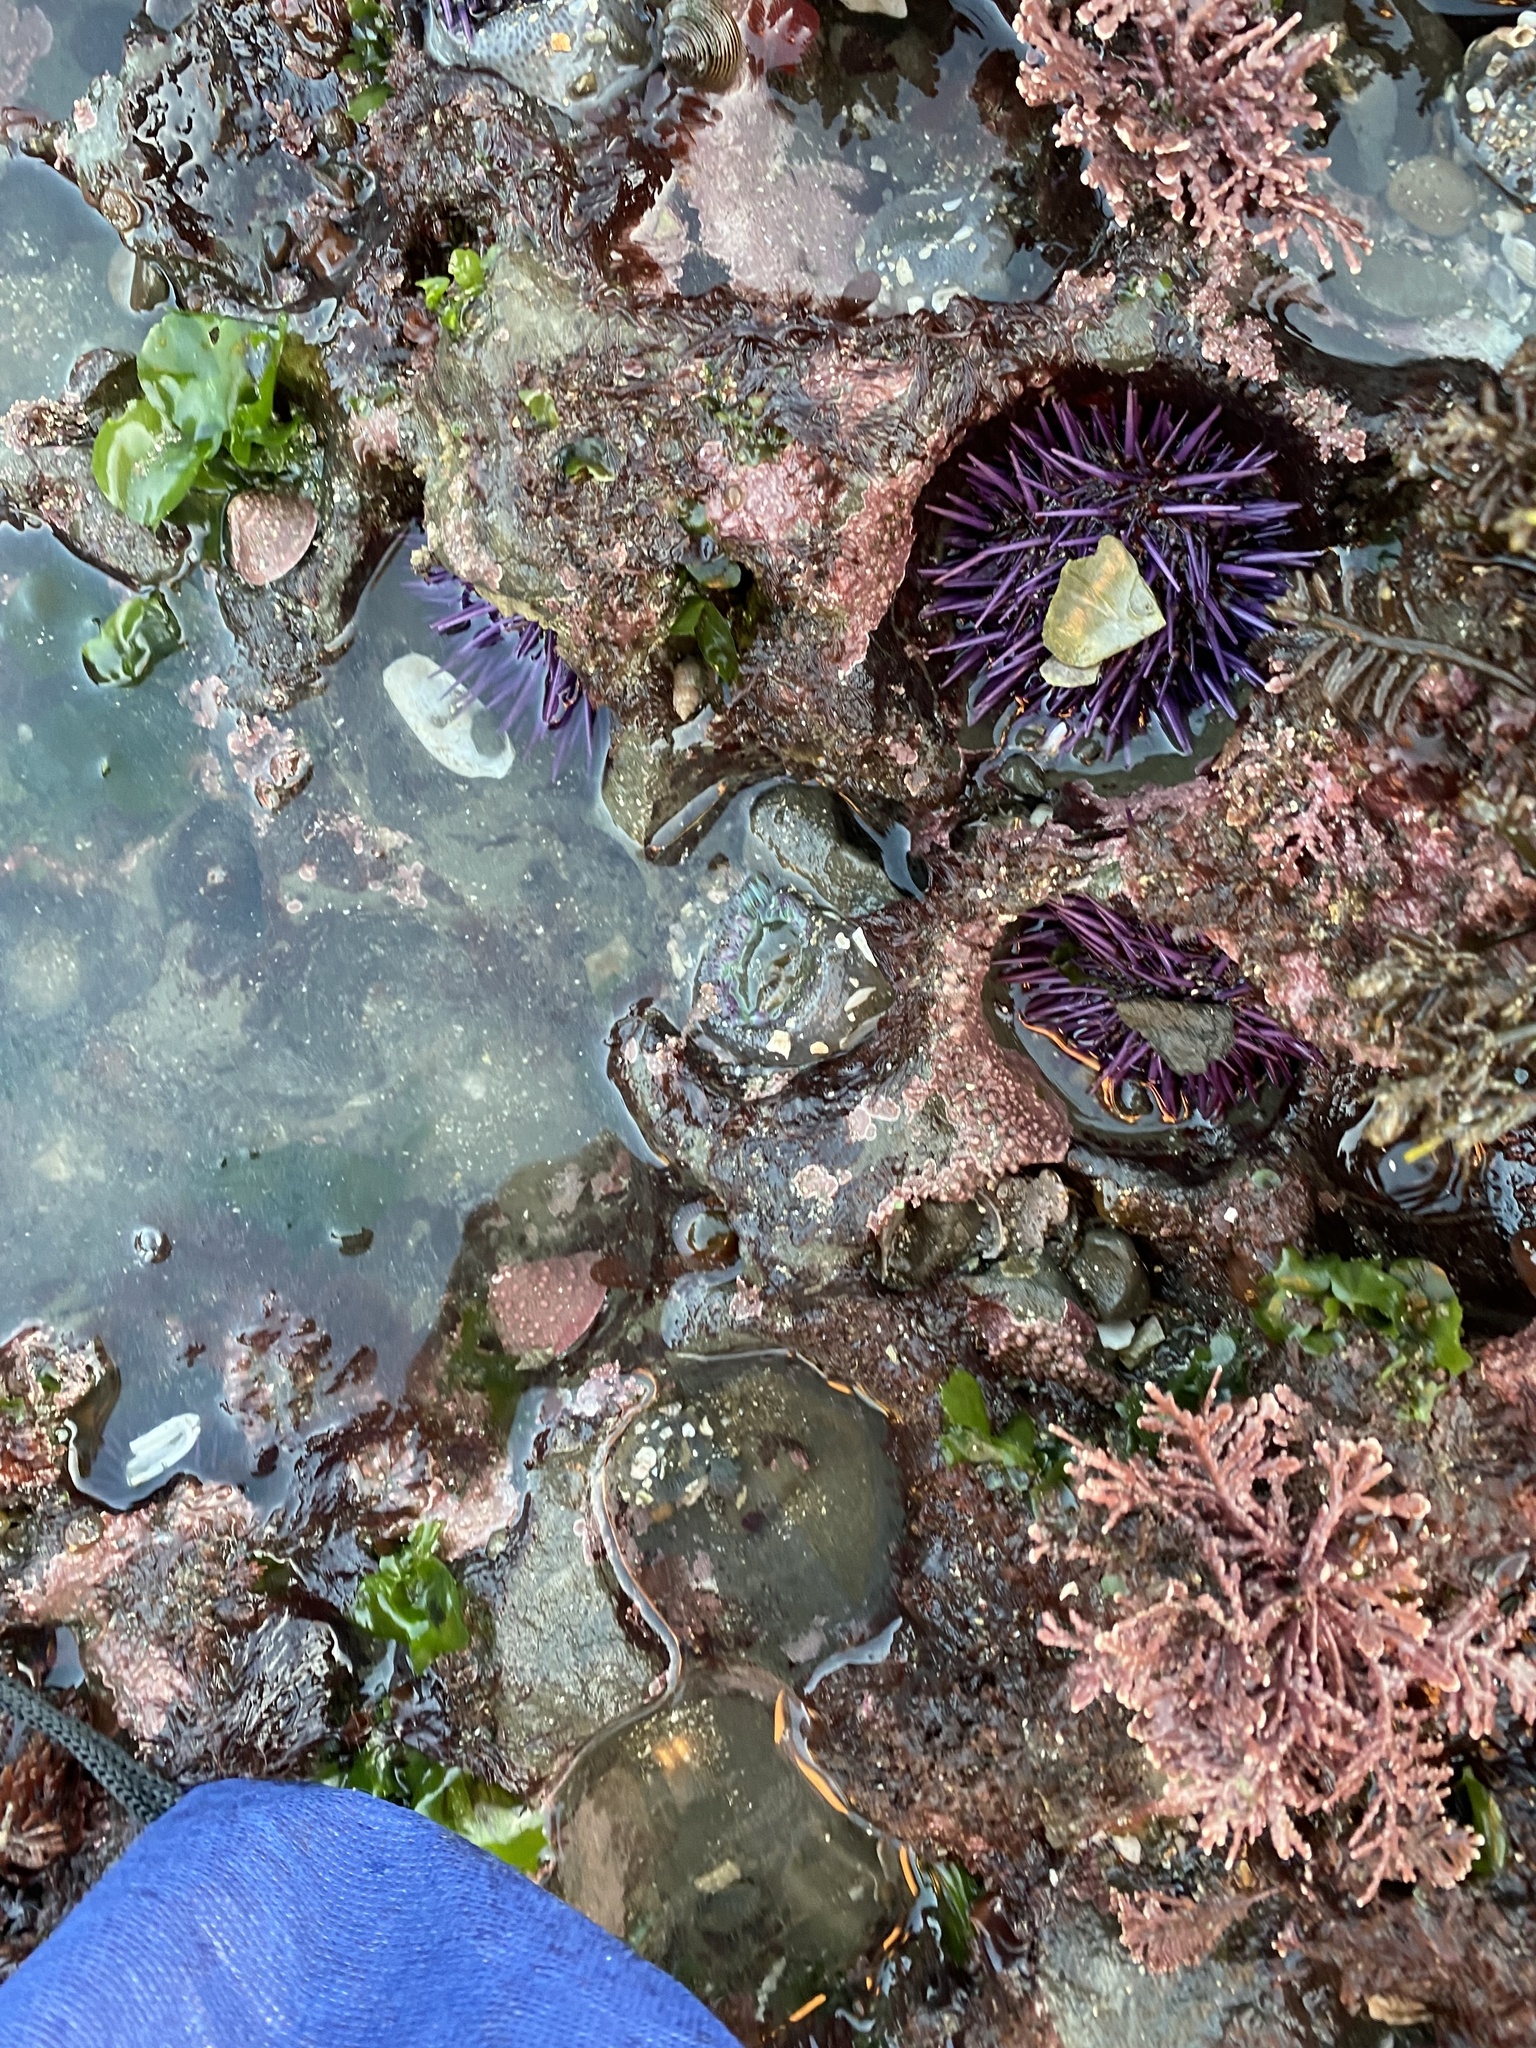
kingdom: Animalia
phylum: Echinodermata
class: Echinoidea
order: Camarodonta
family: Strongylocentrotidae
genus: Strongylocentrotus
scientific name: Strongylocentrotus purpuratus
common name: Purple sea urchin
